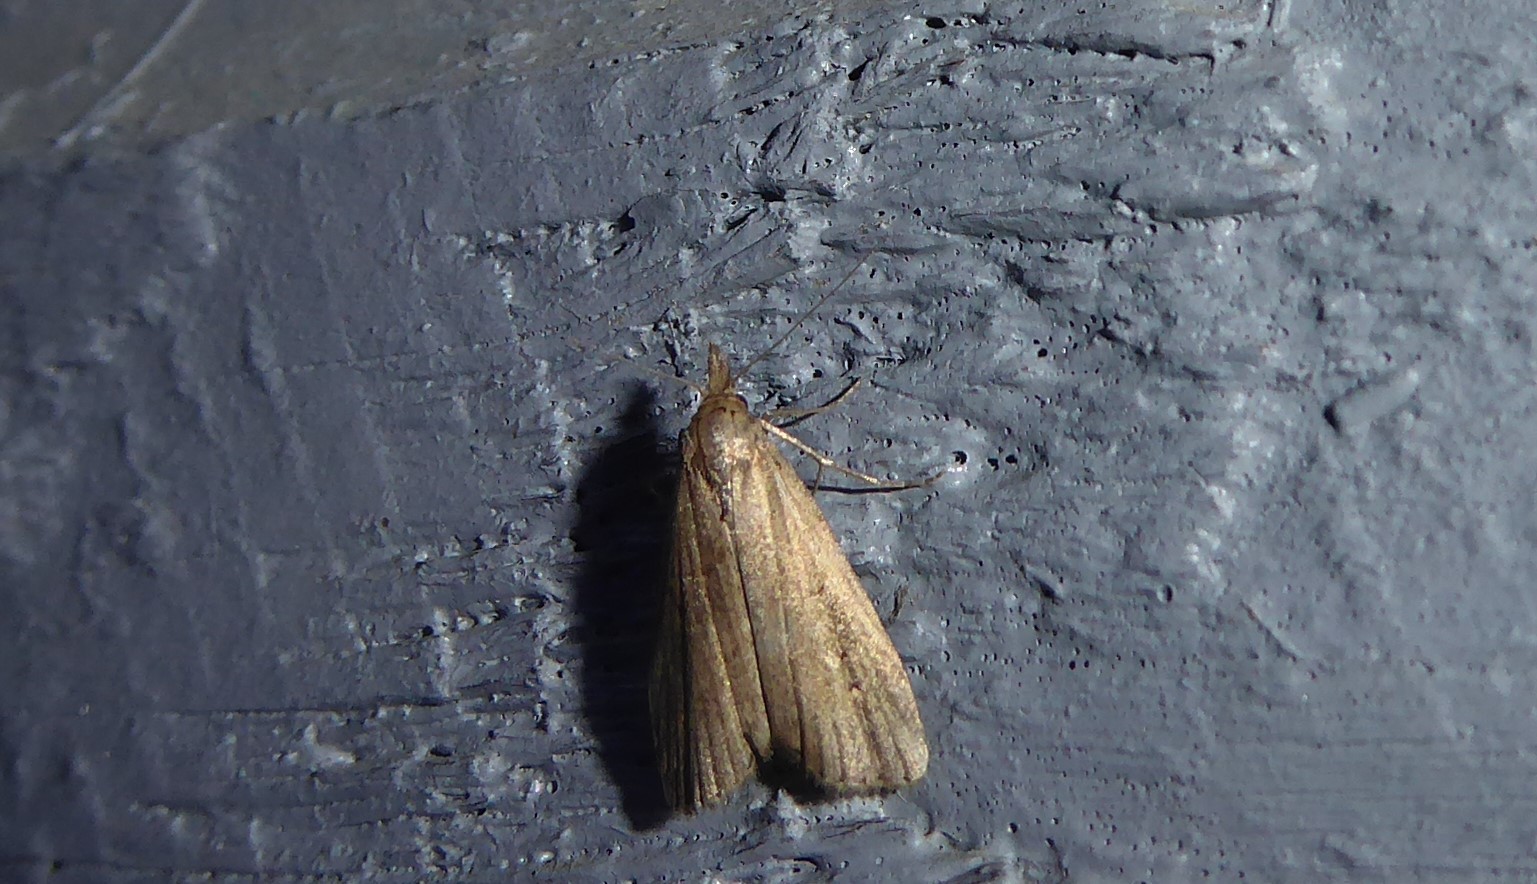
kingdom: Animalia
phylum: Arthropoda
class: Insecta
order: Lepidoptera
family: Erebidae
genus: Schrankia
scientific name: Schrankia costaestrigalis
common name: Pinion-streaked snout
